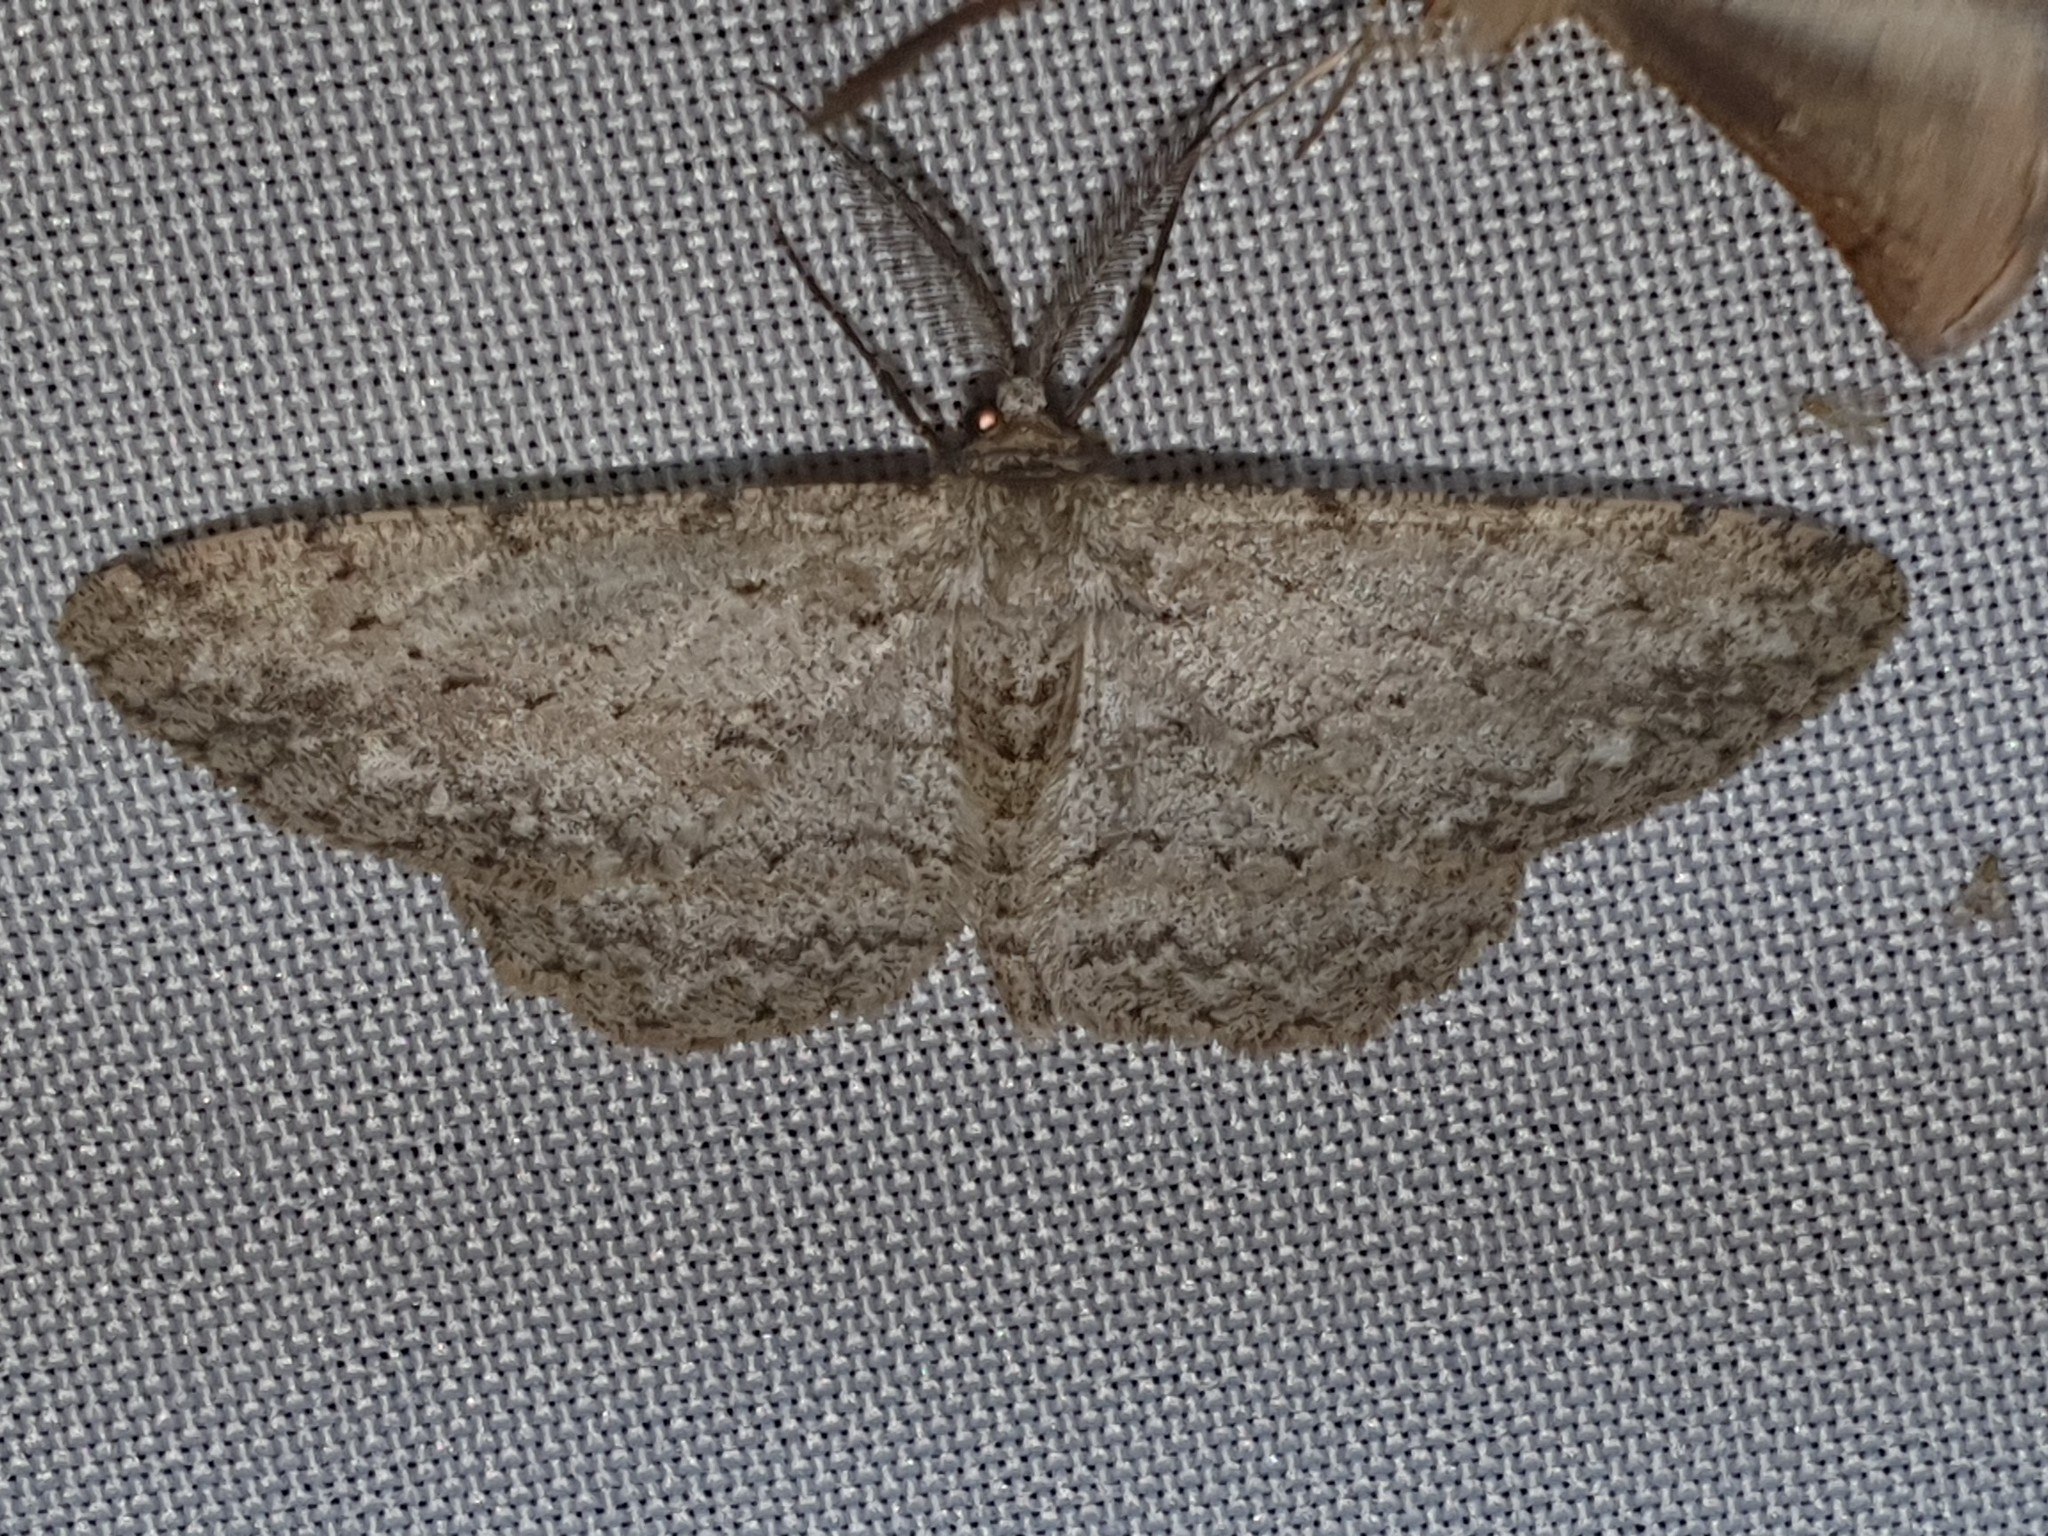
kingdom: Animalia
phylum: Arthropoda
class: Insecta
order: Lepidoptera
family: Geometridae
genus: Hypomecis
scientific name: Hypomecis punctinalis
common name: Pale oak beauty
